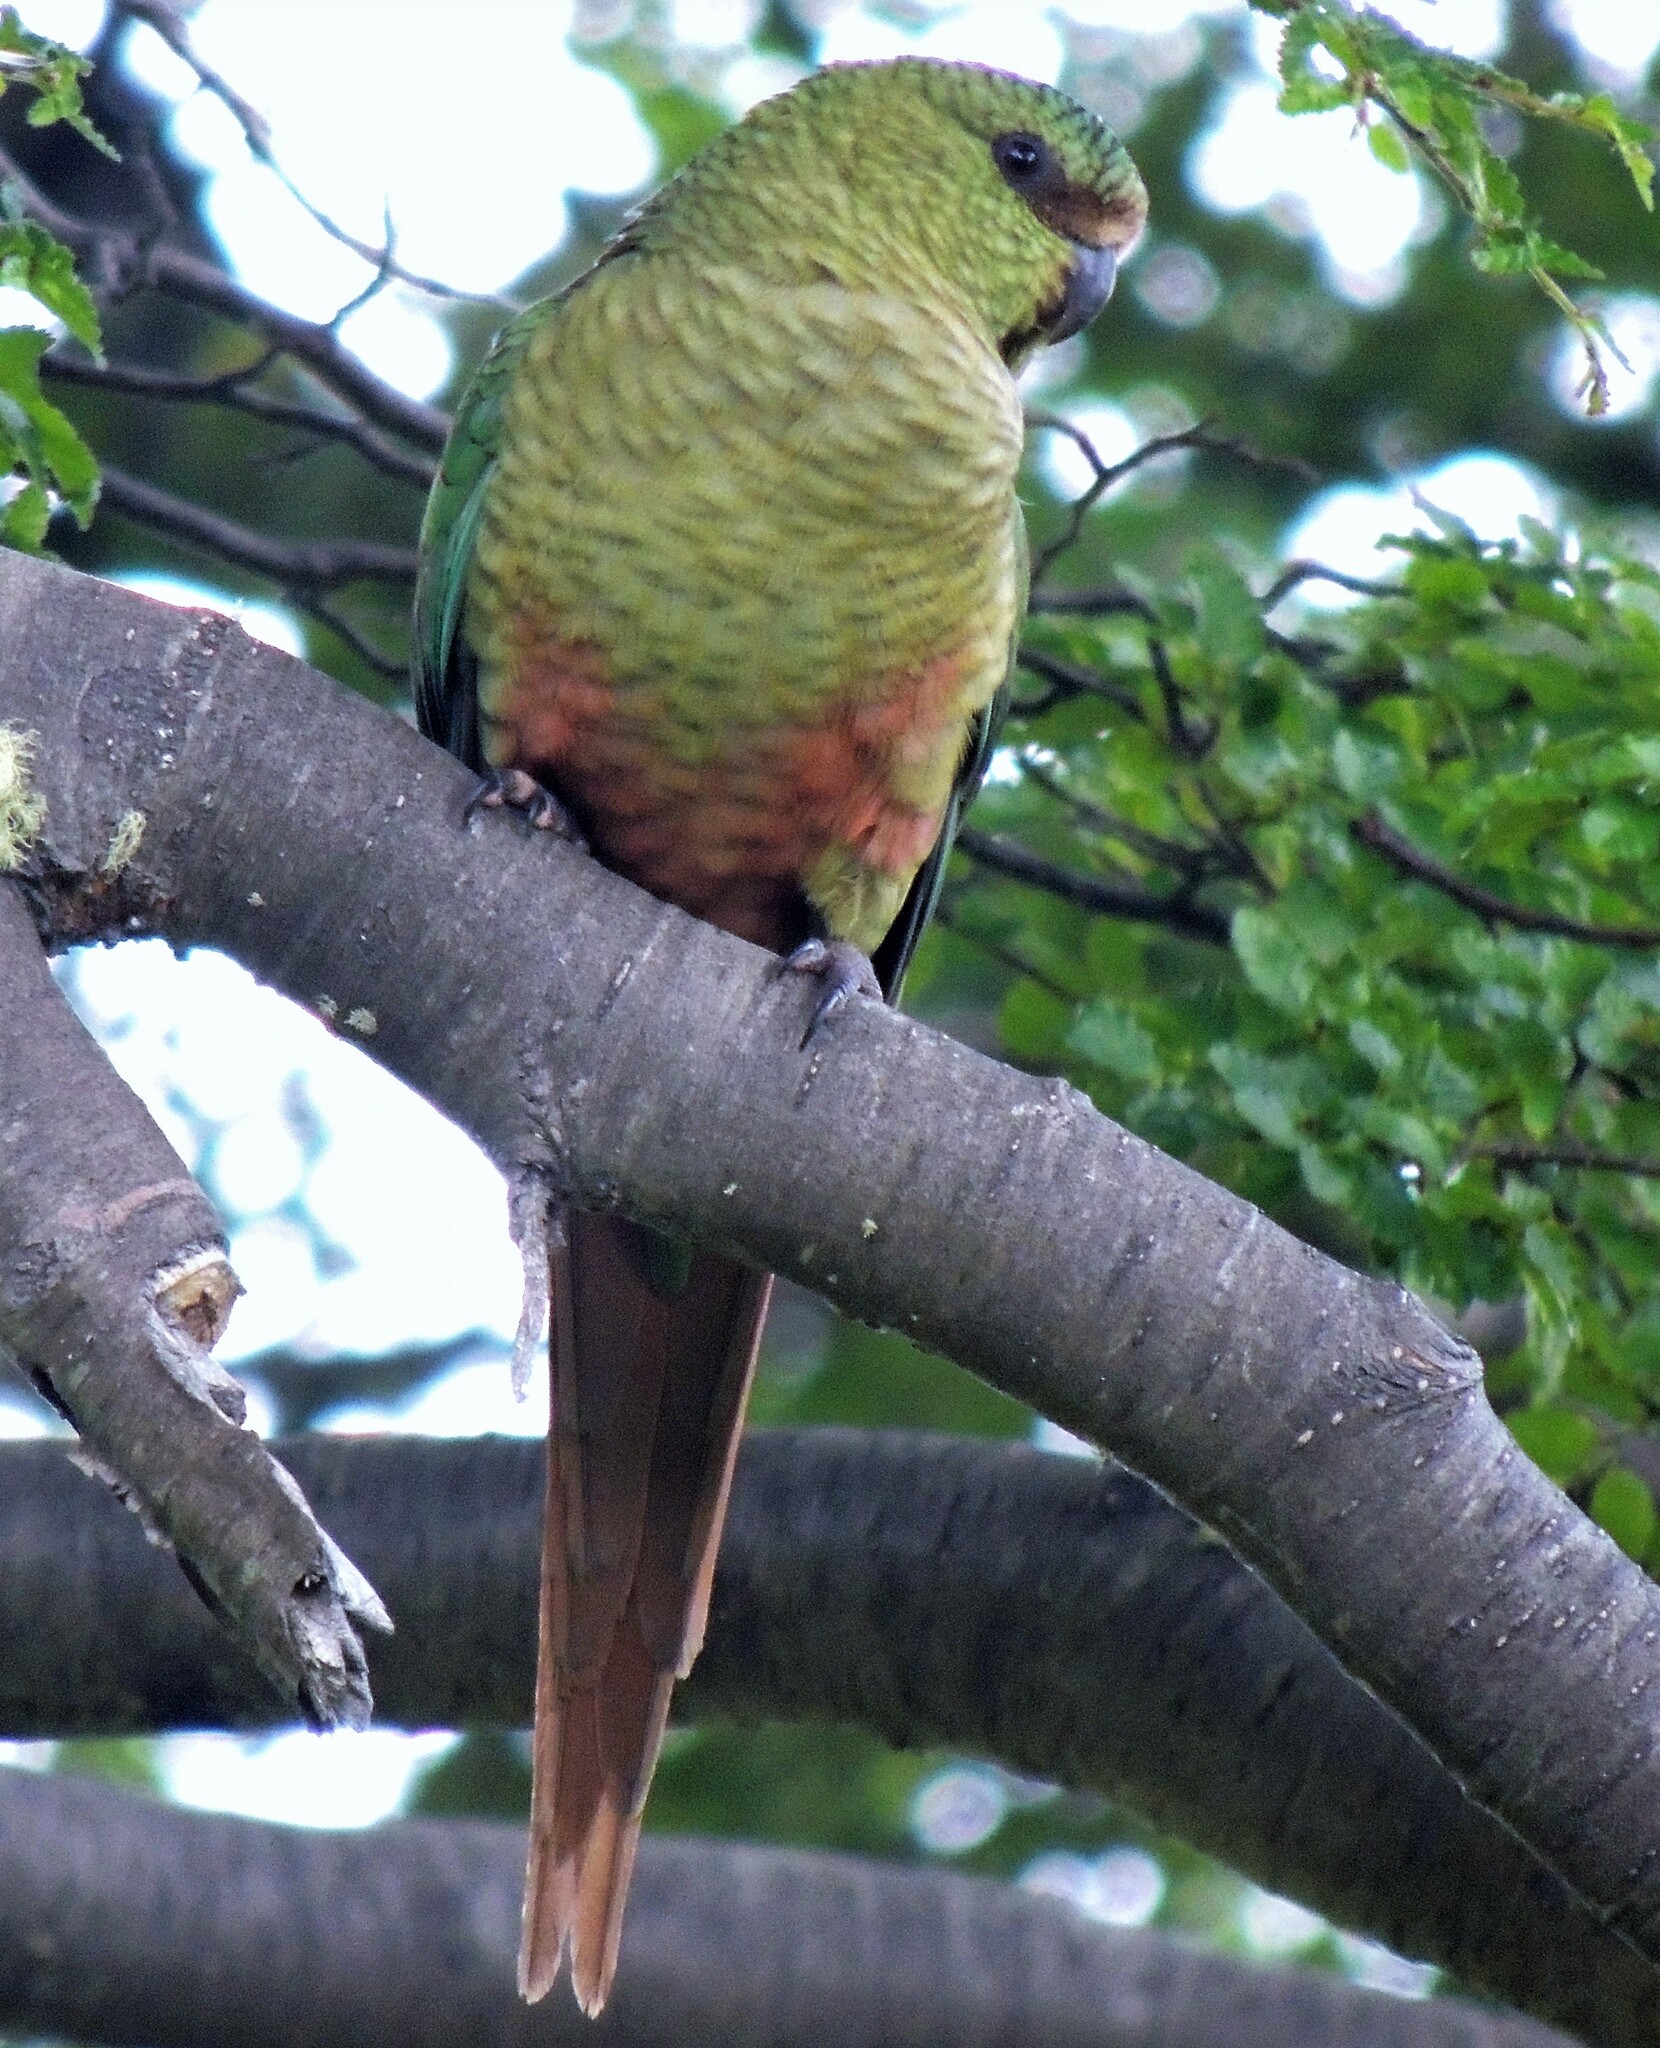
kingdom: Animalia
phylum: Chordata
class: Aves
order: Psittaciformes
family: Psittacidae
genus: Enicognathus
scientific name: Enicognathus ferrugineus
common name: Austral parakeet
